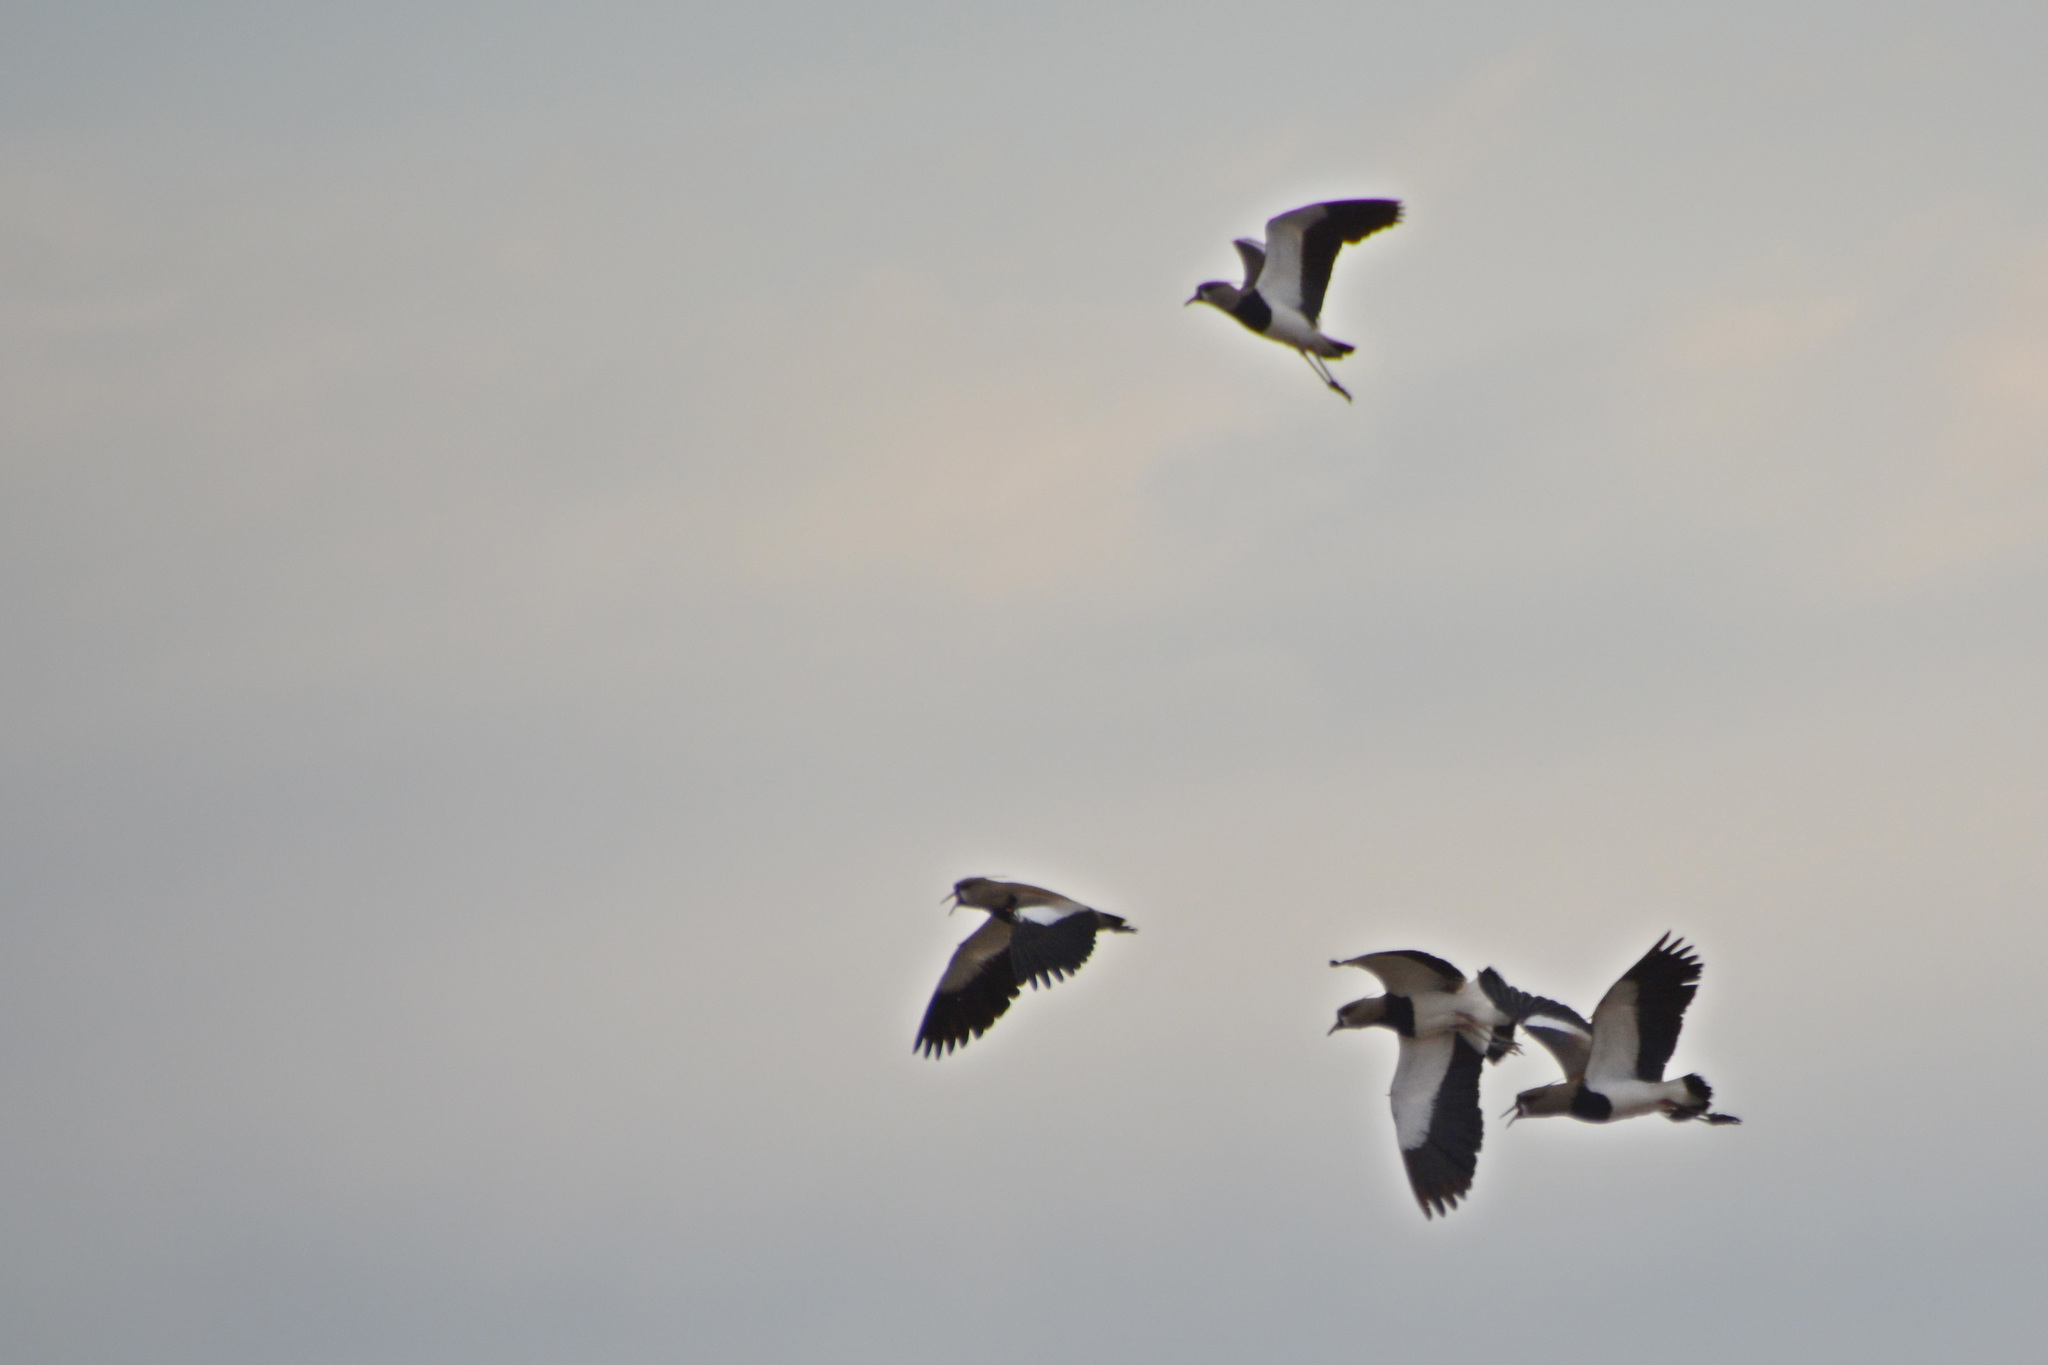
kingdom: Animalia
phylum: Chordata
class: Aves
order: Charadriiformes
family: Charadriidae
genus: Vanellus
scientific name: Vanellus chilensis
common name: Southern lapwing
